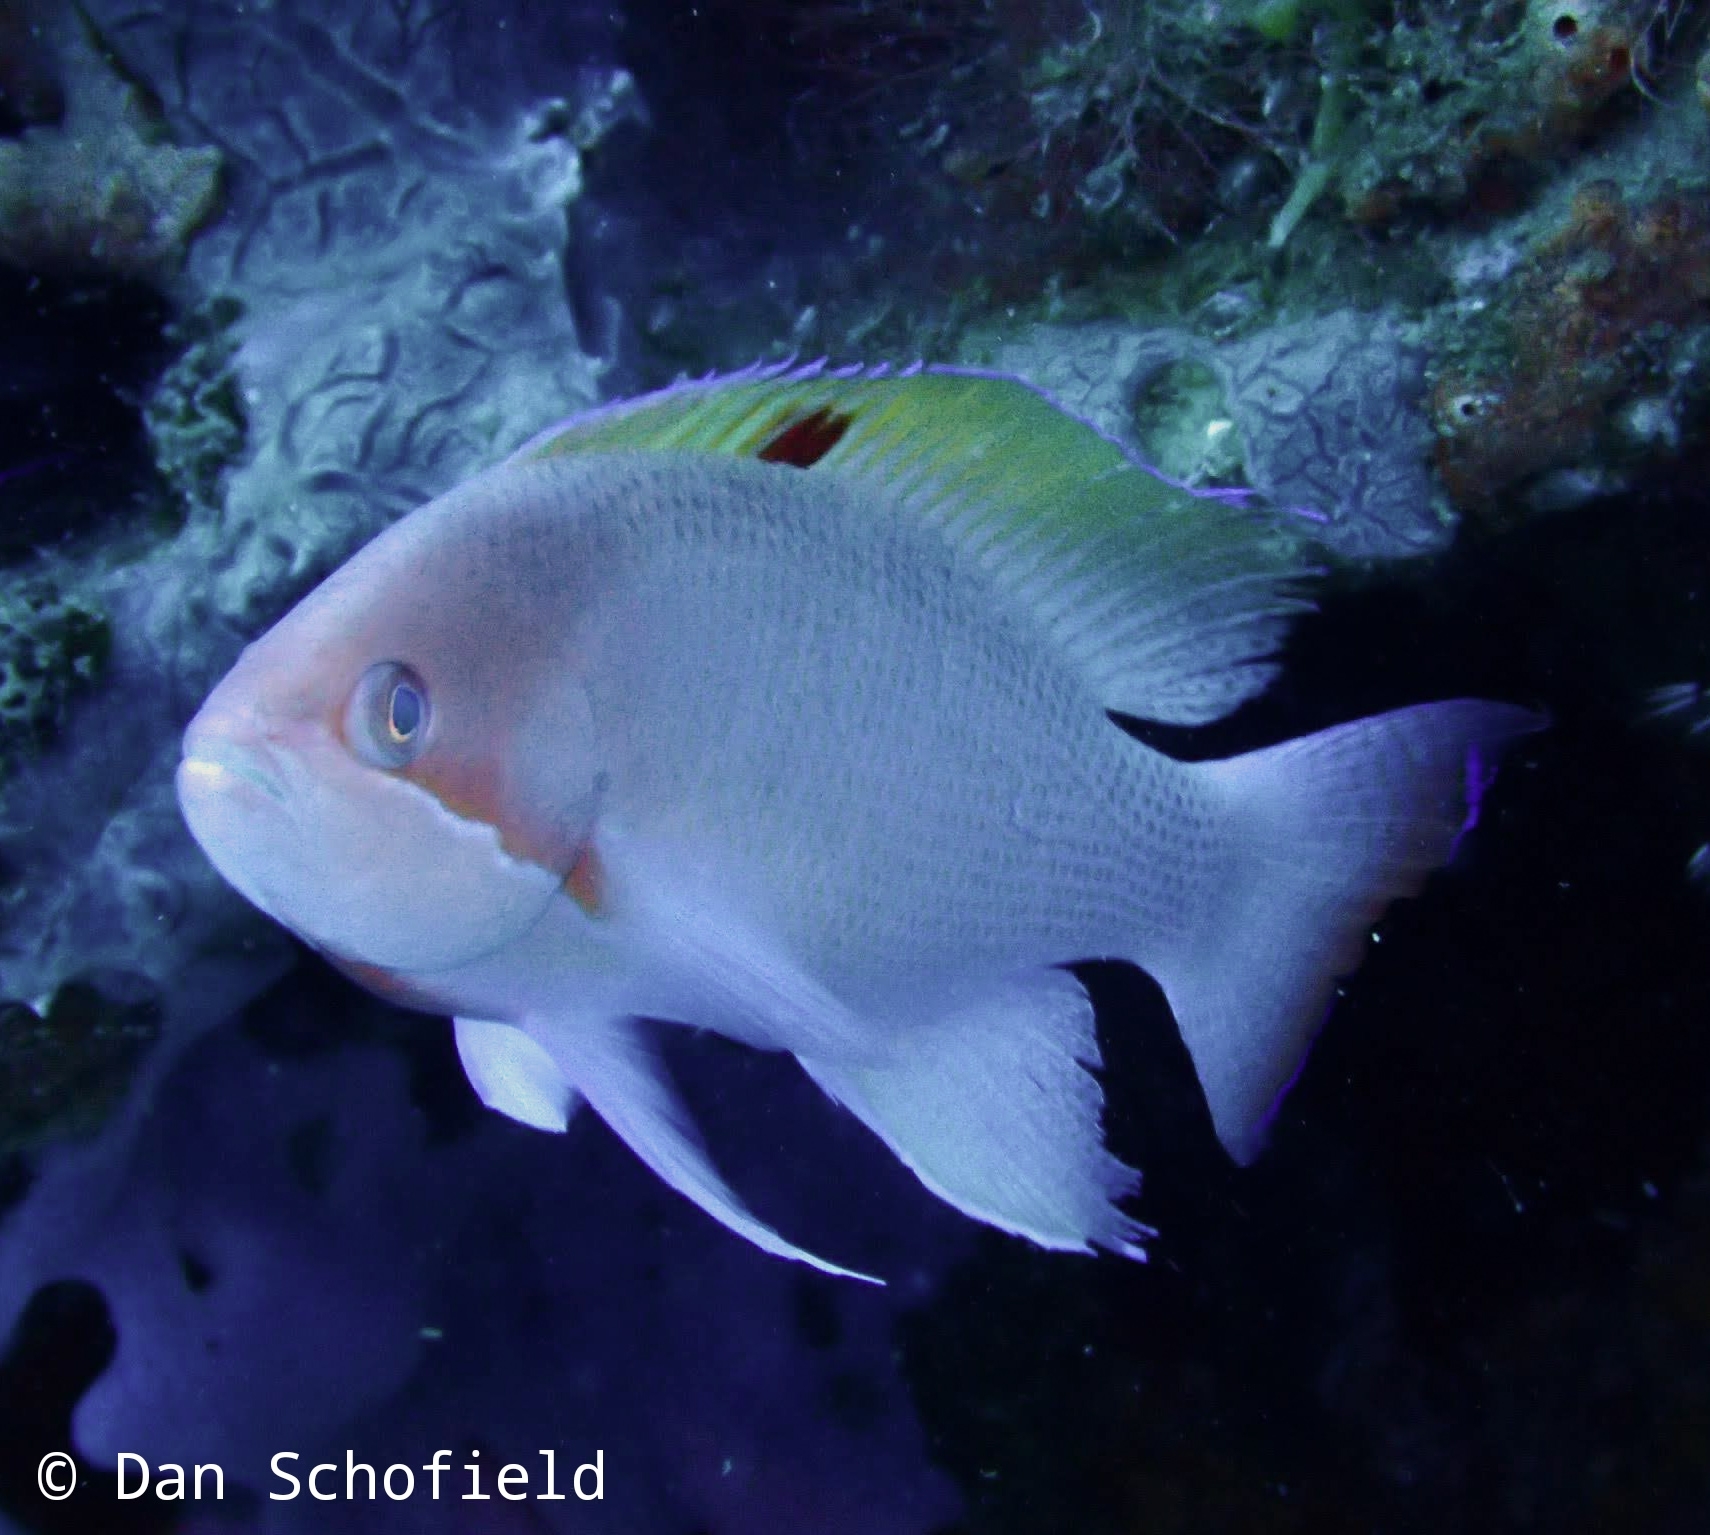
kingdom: Animalia
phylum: Chordata
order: Perciformes
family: Serranidae
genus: Pseudanthias
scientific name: Pseudanthias hypselosoma
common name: Pink basslet
